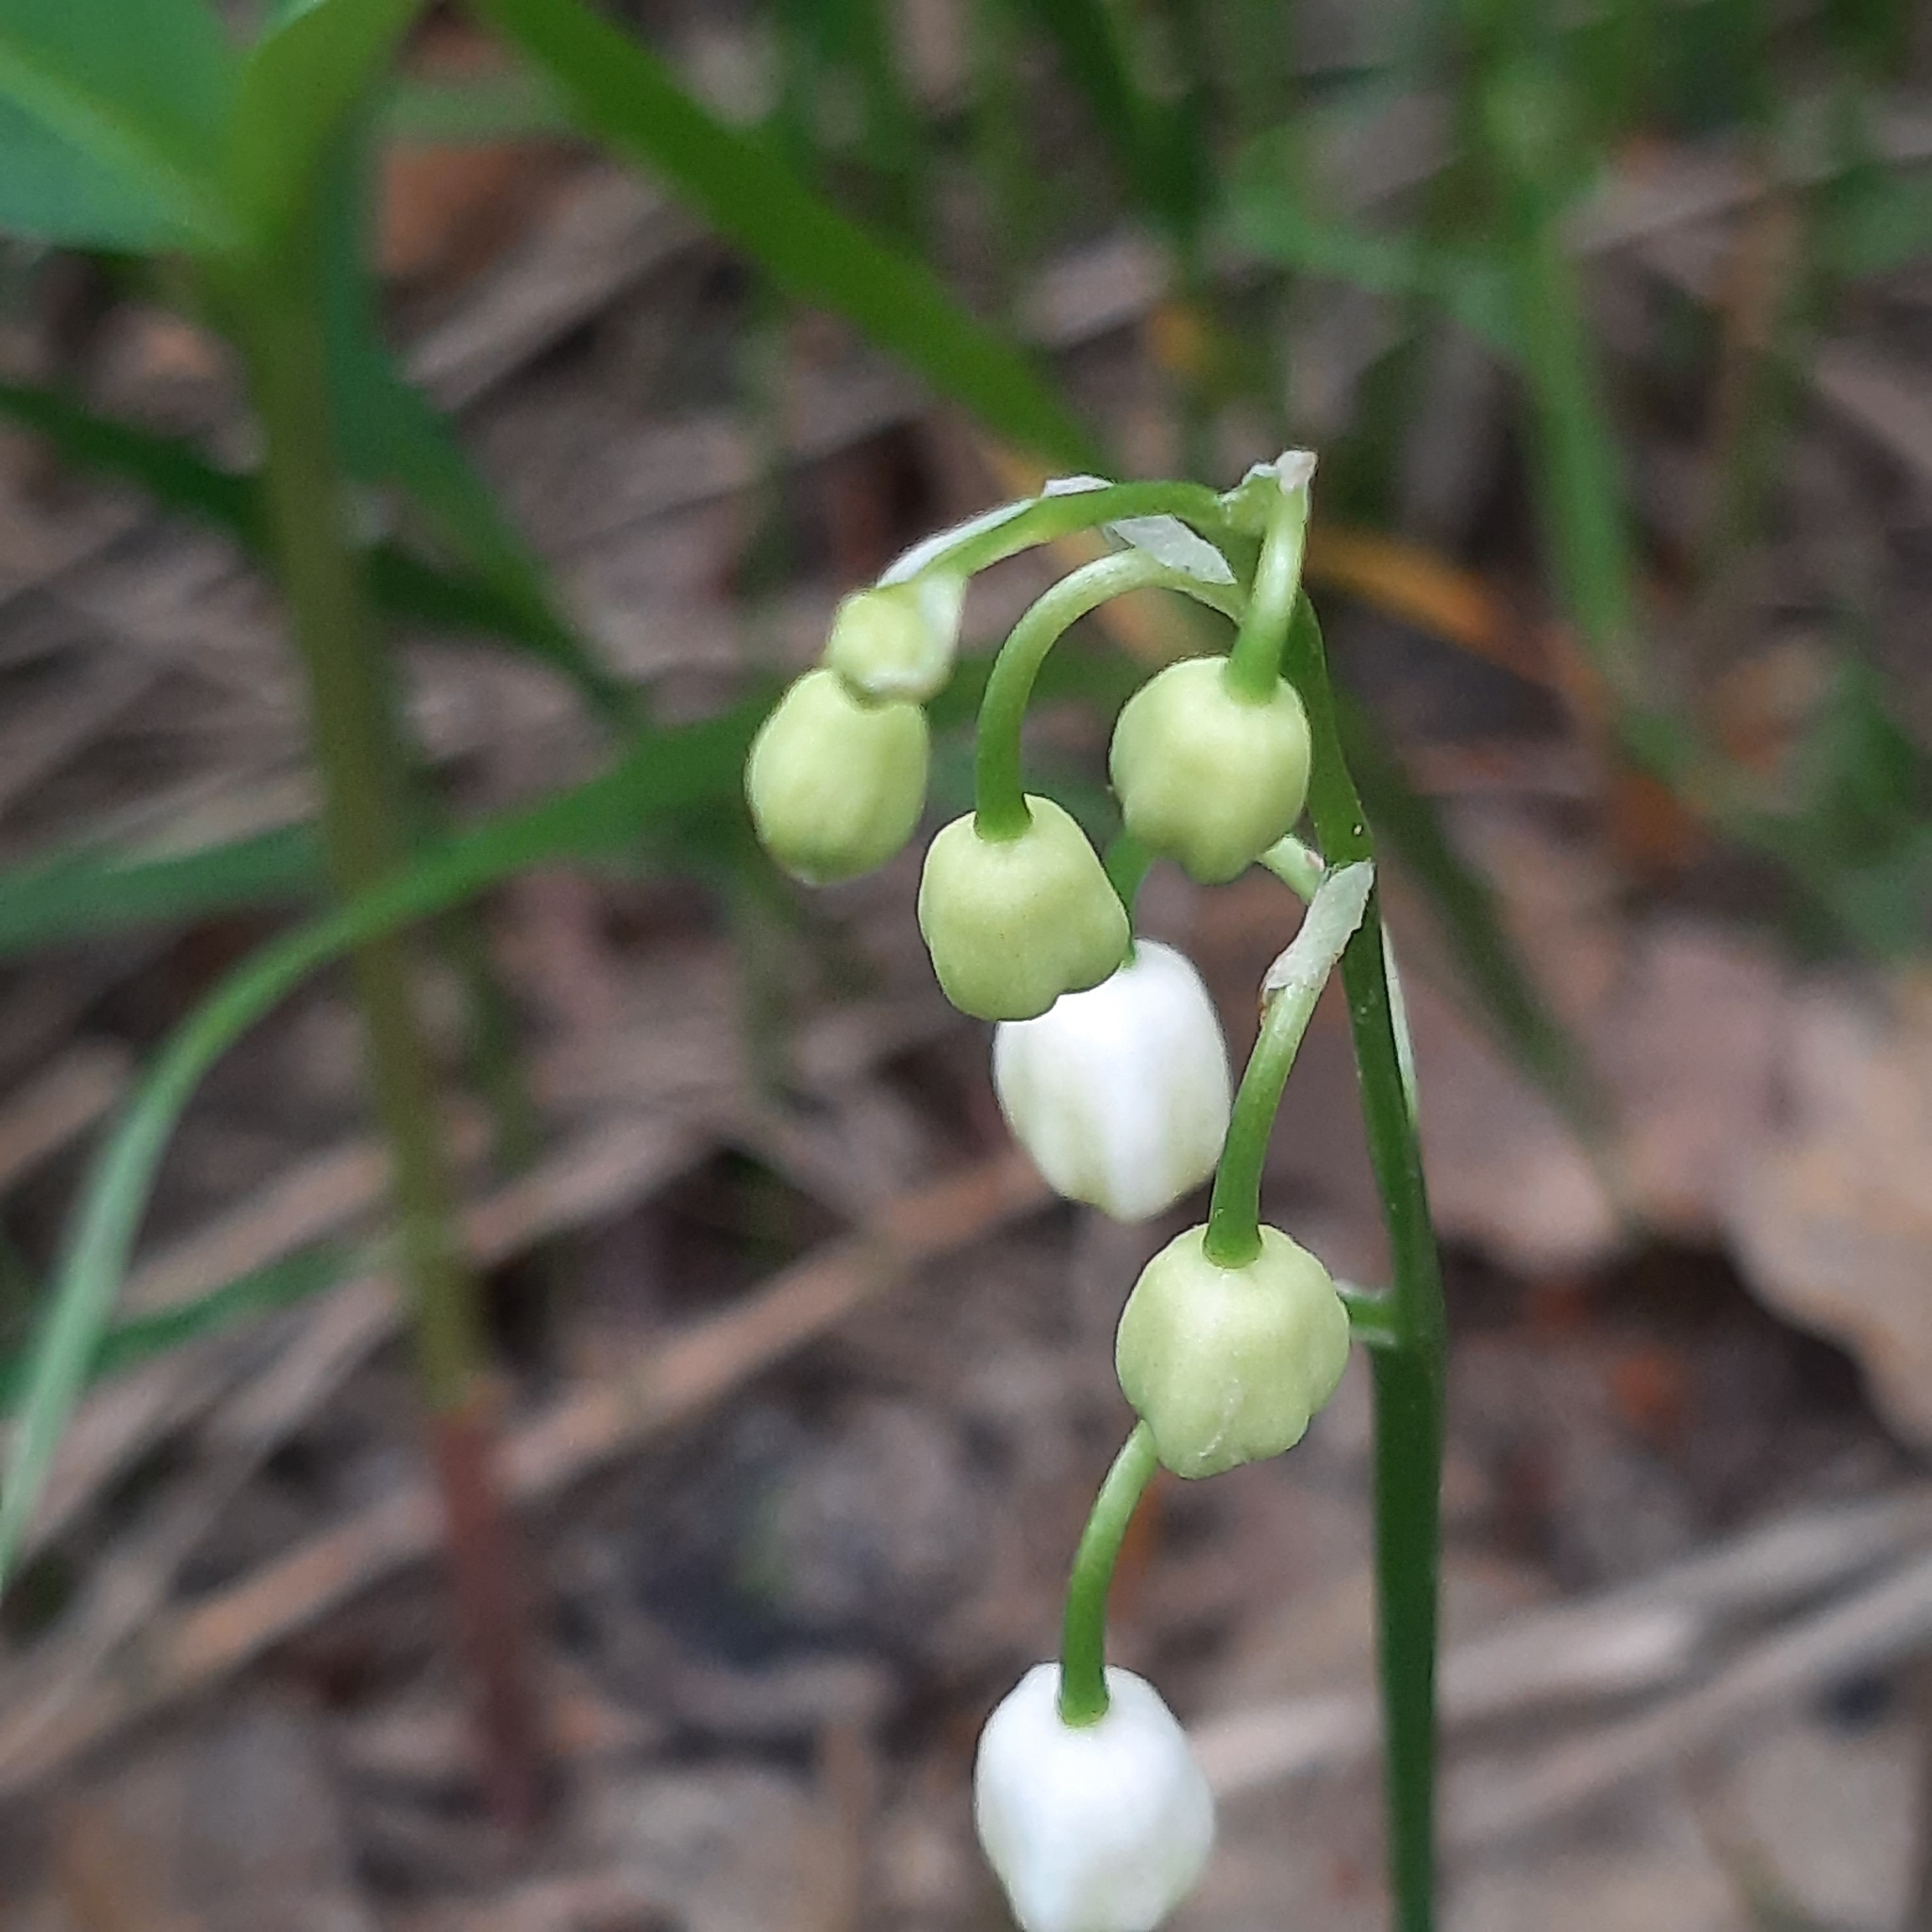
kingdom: Plantae
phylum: Tracheophyta
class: Liliopsida
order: Asparagales
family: Asparagaceae
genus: Convallaria
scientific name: Convallaria majalis
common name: Lily-of-the-valley
